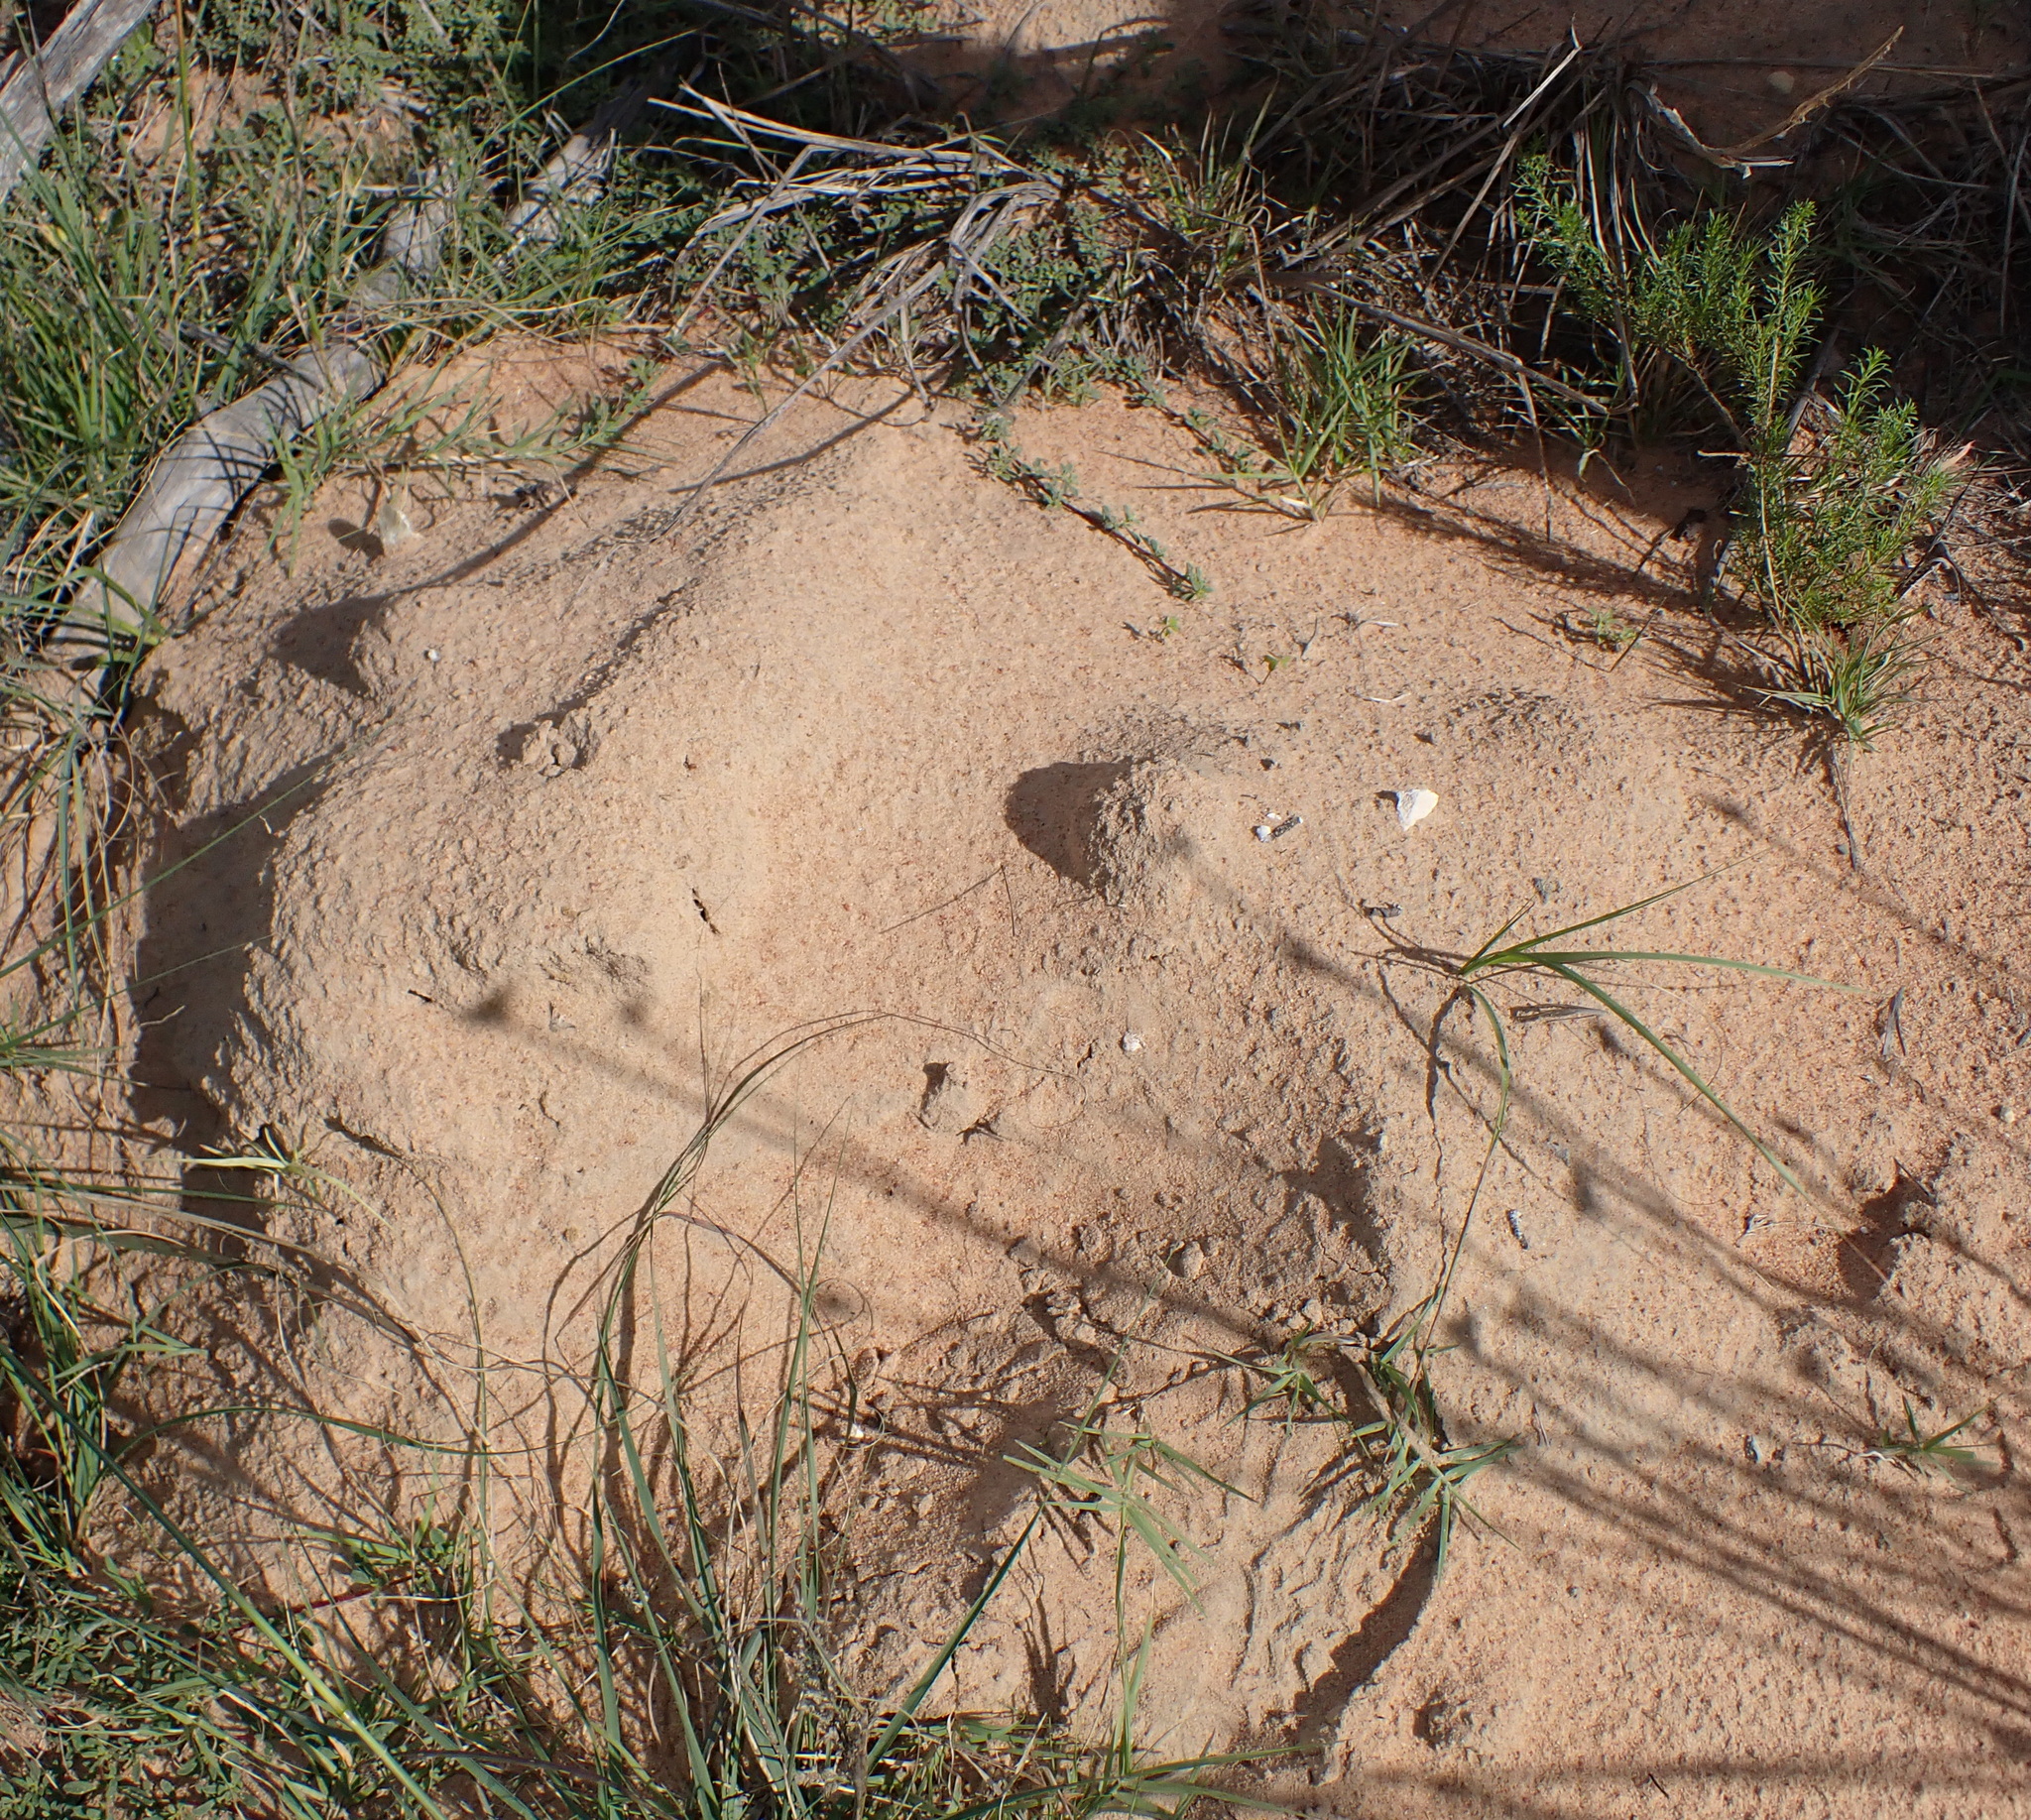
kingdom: Animalia
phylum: Chordata
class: Mammalia
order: Rodentia
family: Bathyergidae
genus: Bathyergus
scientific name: Bathyergus suillus
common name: Cape dune mole rat
